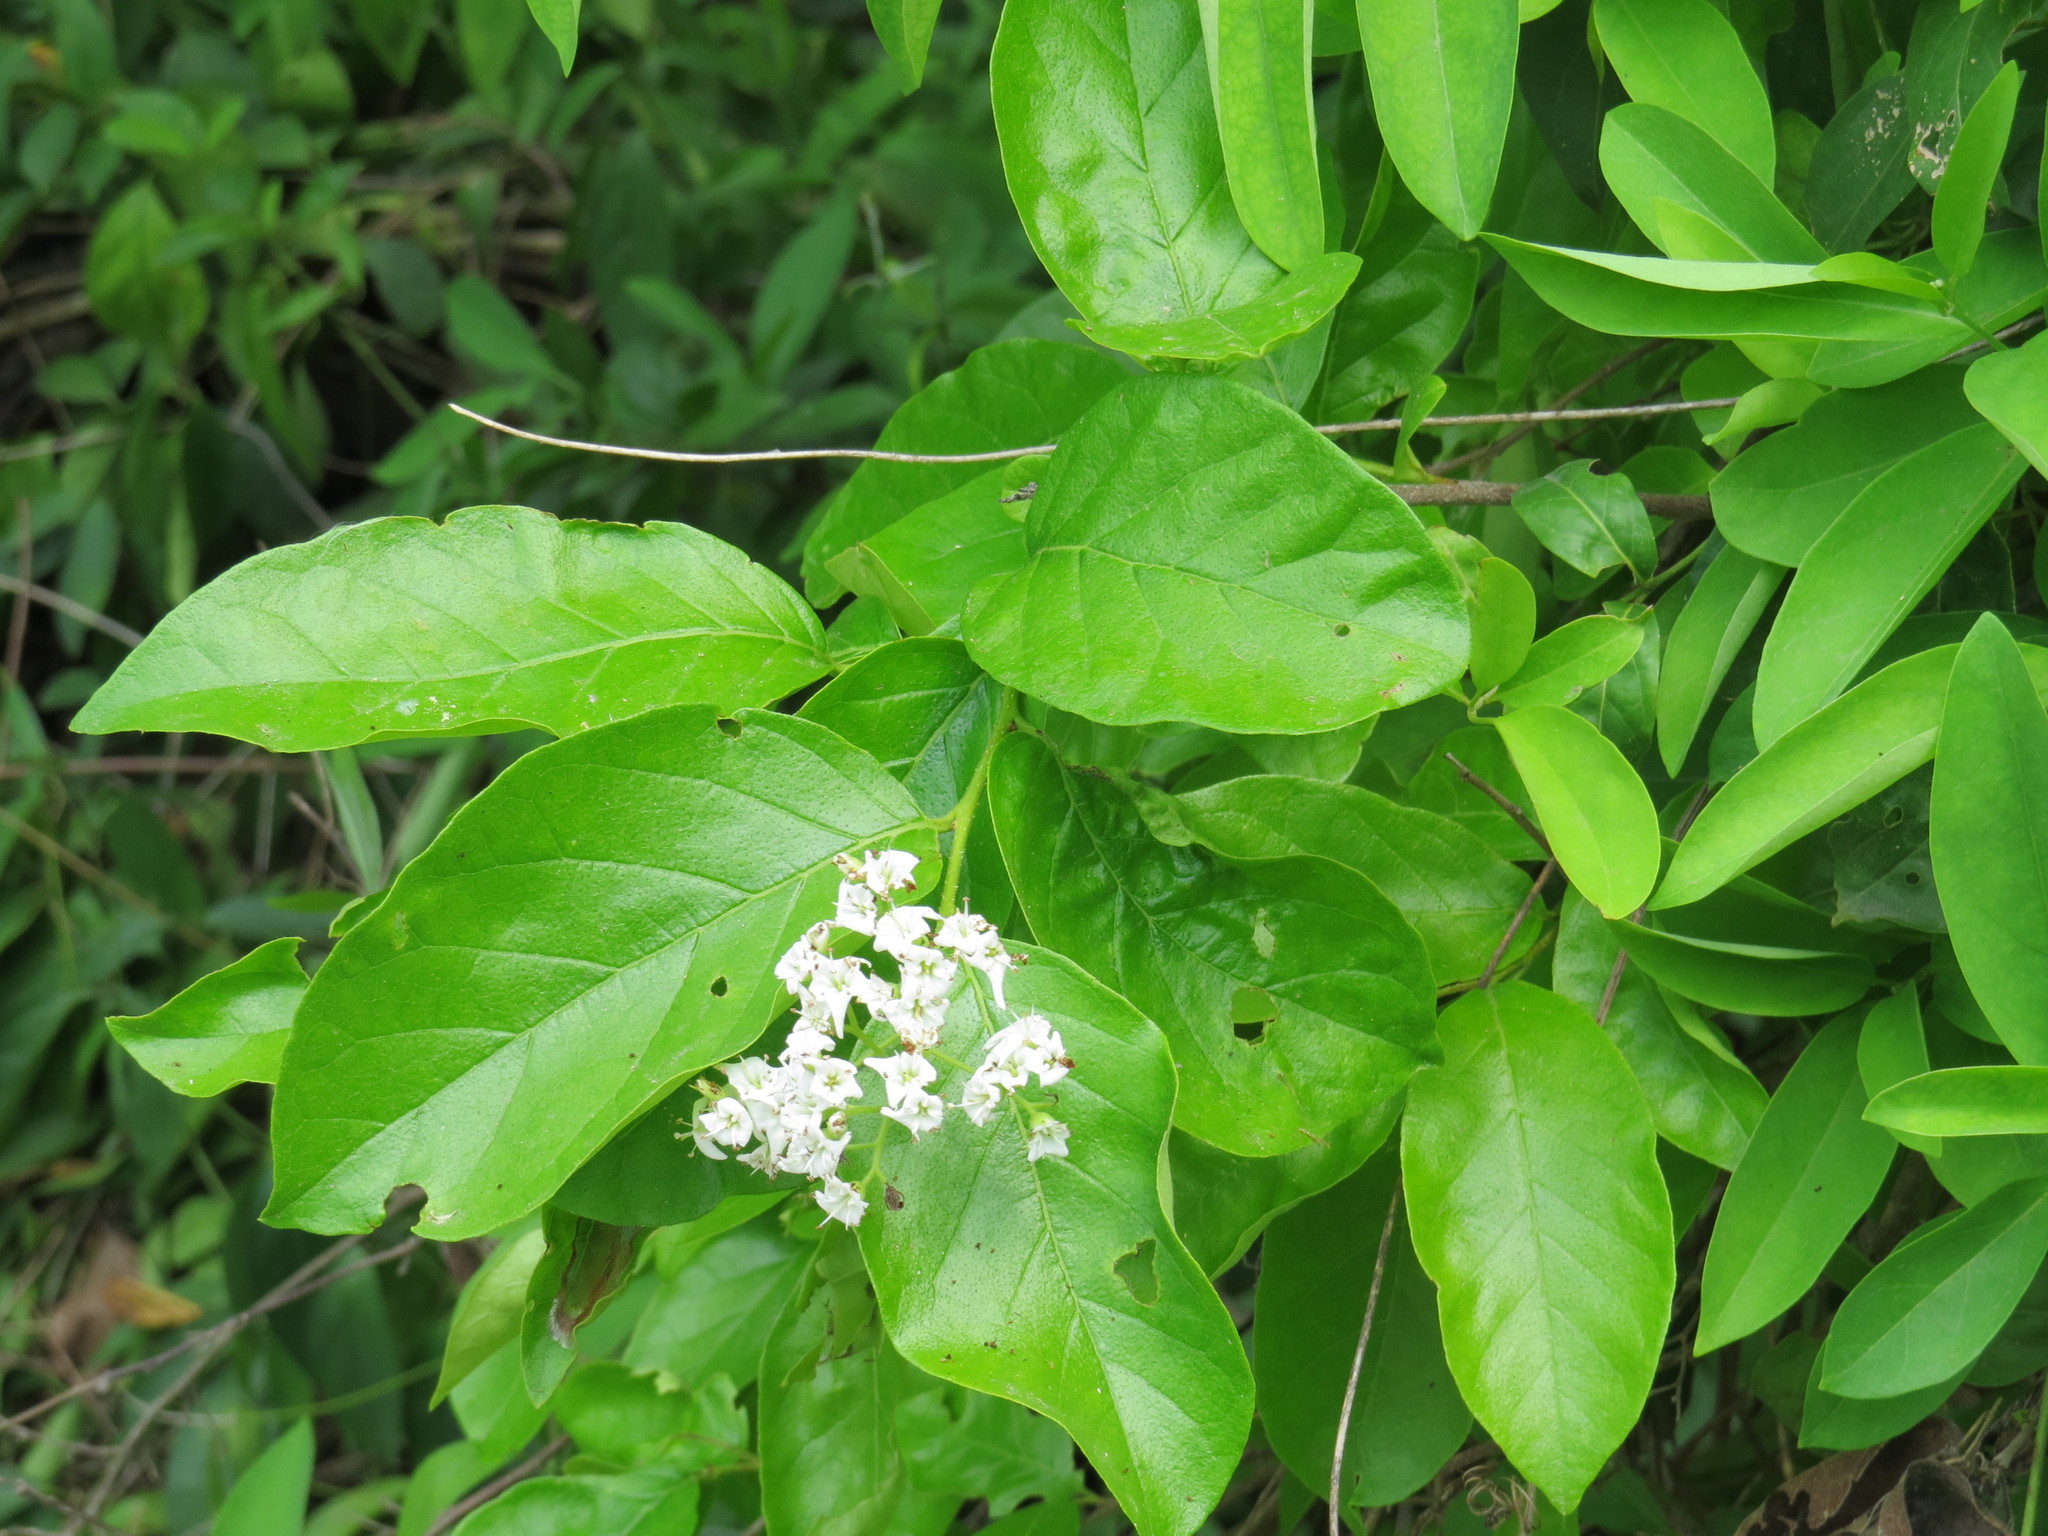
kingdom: Plantae
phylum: Tracheophyta
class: Magnoliopsida
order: Boraginales
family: Ehretiaceae
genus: Ehretia
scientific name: Ehretia anacua
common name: Sugarberry
